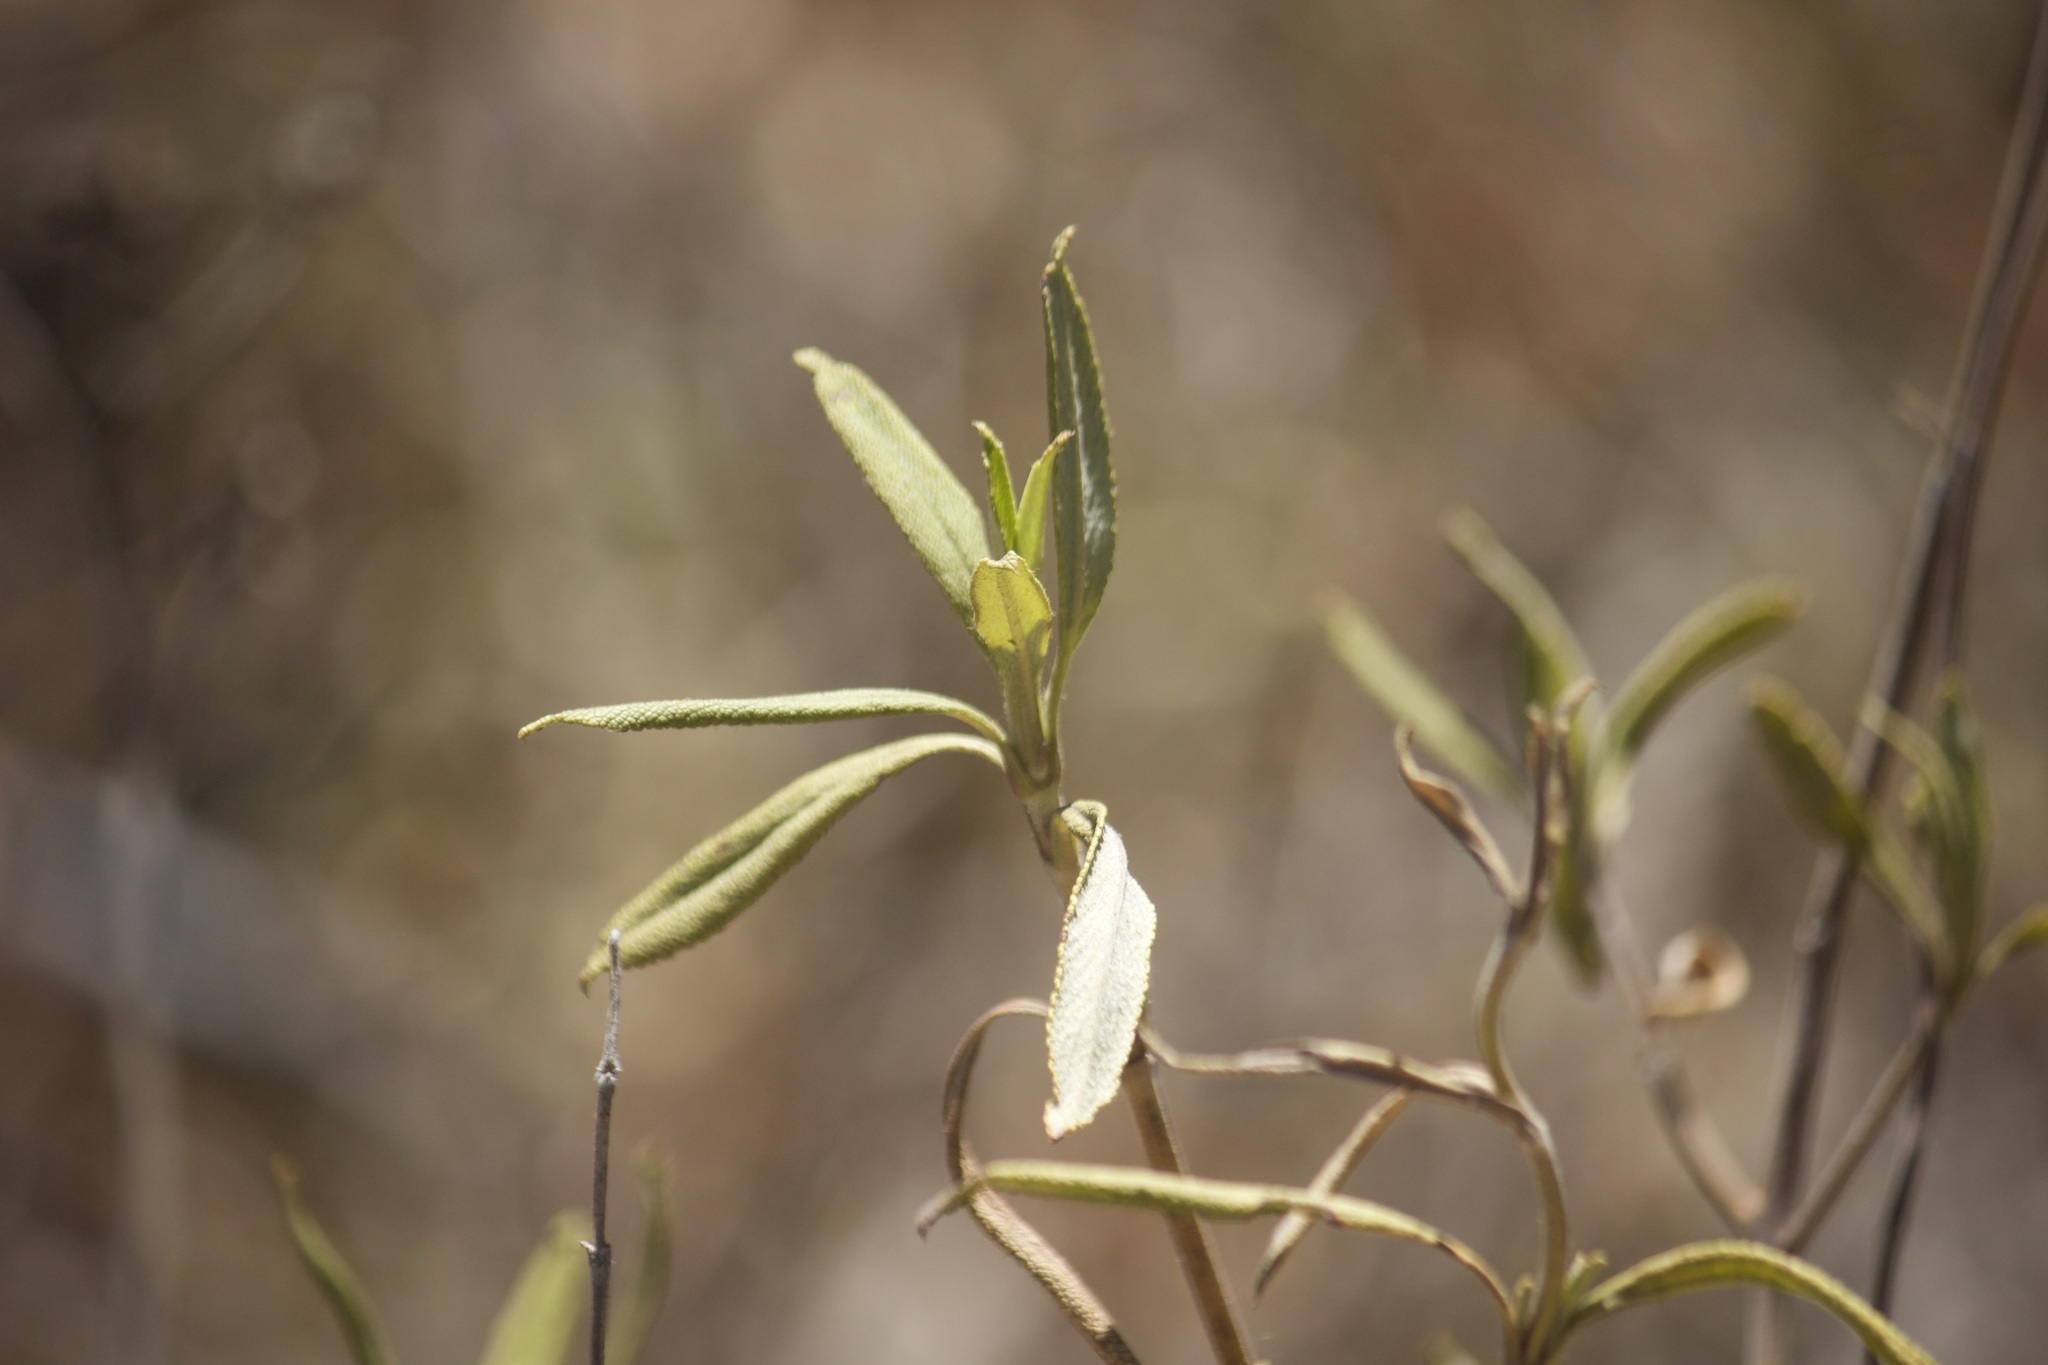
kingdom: Plantae
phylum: Tracheophyta
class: Magnoliopsida
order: Lamiales
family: Lamiaceae
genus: Salvia
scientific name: Salvia mellifera
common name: Black sage
